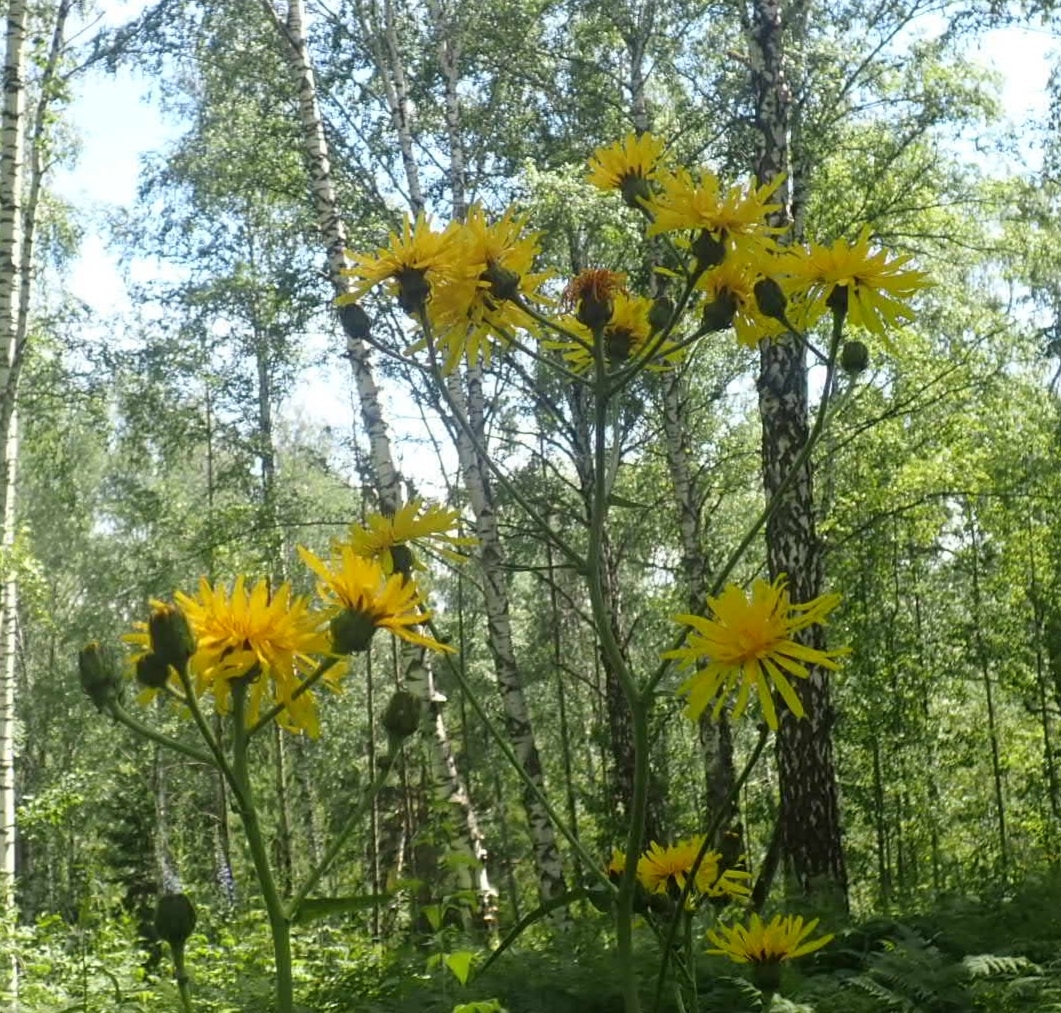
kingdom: Plantae
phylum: Tracheophyta
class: Magnoliopsida
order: Asterales
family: Asteraceae
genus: Crepis
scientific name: Crepis sibirica
